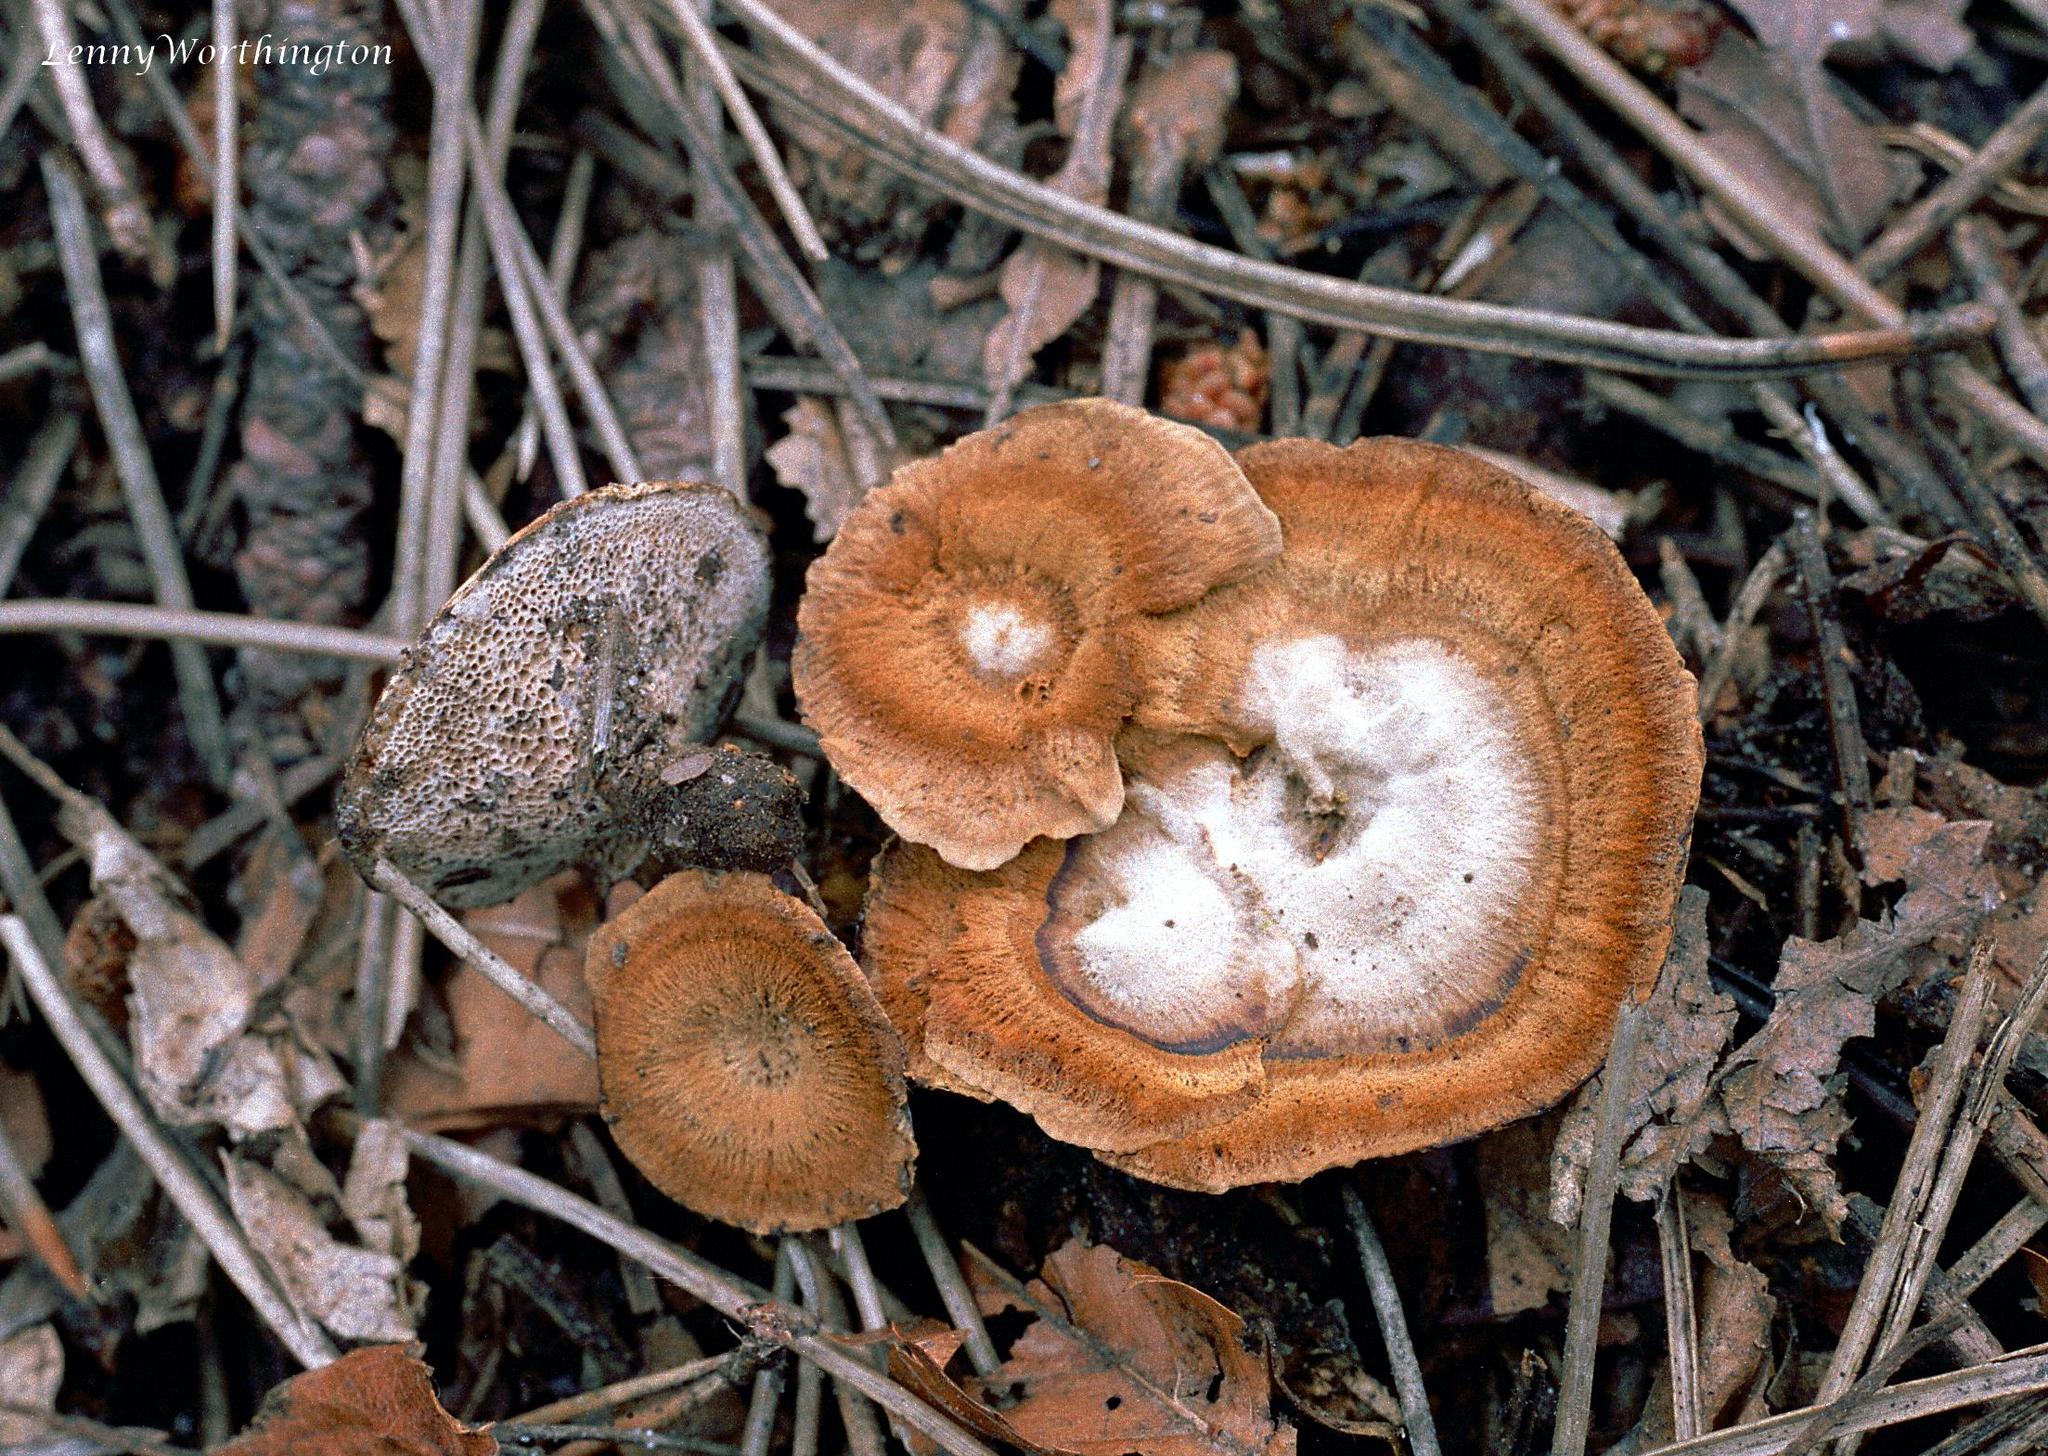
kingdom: Fungi
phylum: Basidiomycota
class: Agaricomycetes
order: Hymenochaetales
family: Hymenochaetaceae
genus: Coltricia
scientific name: Coltricia perennis
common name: Tiger's eye
